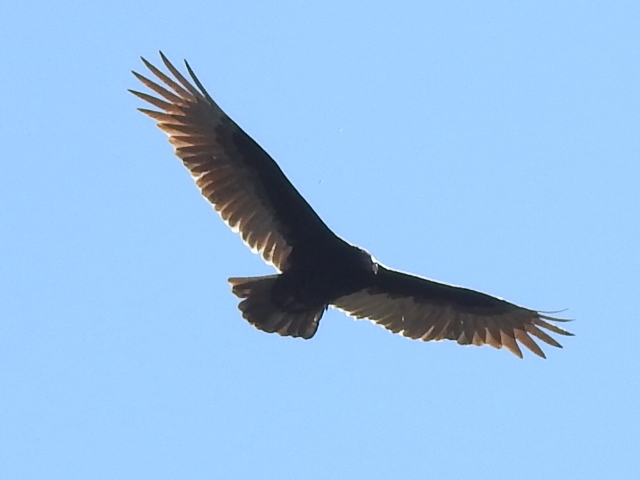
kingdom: Animalia
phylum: Chordata
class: Aves
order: Accipitriformes
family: Cathartidae
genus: Cathartes
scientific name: Cathartes aura
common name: Turkey vulture
